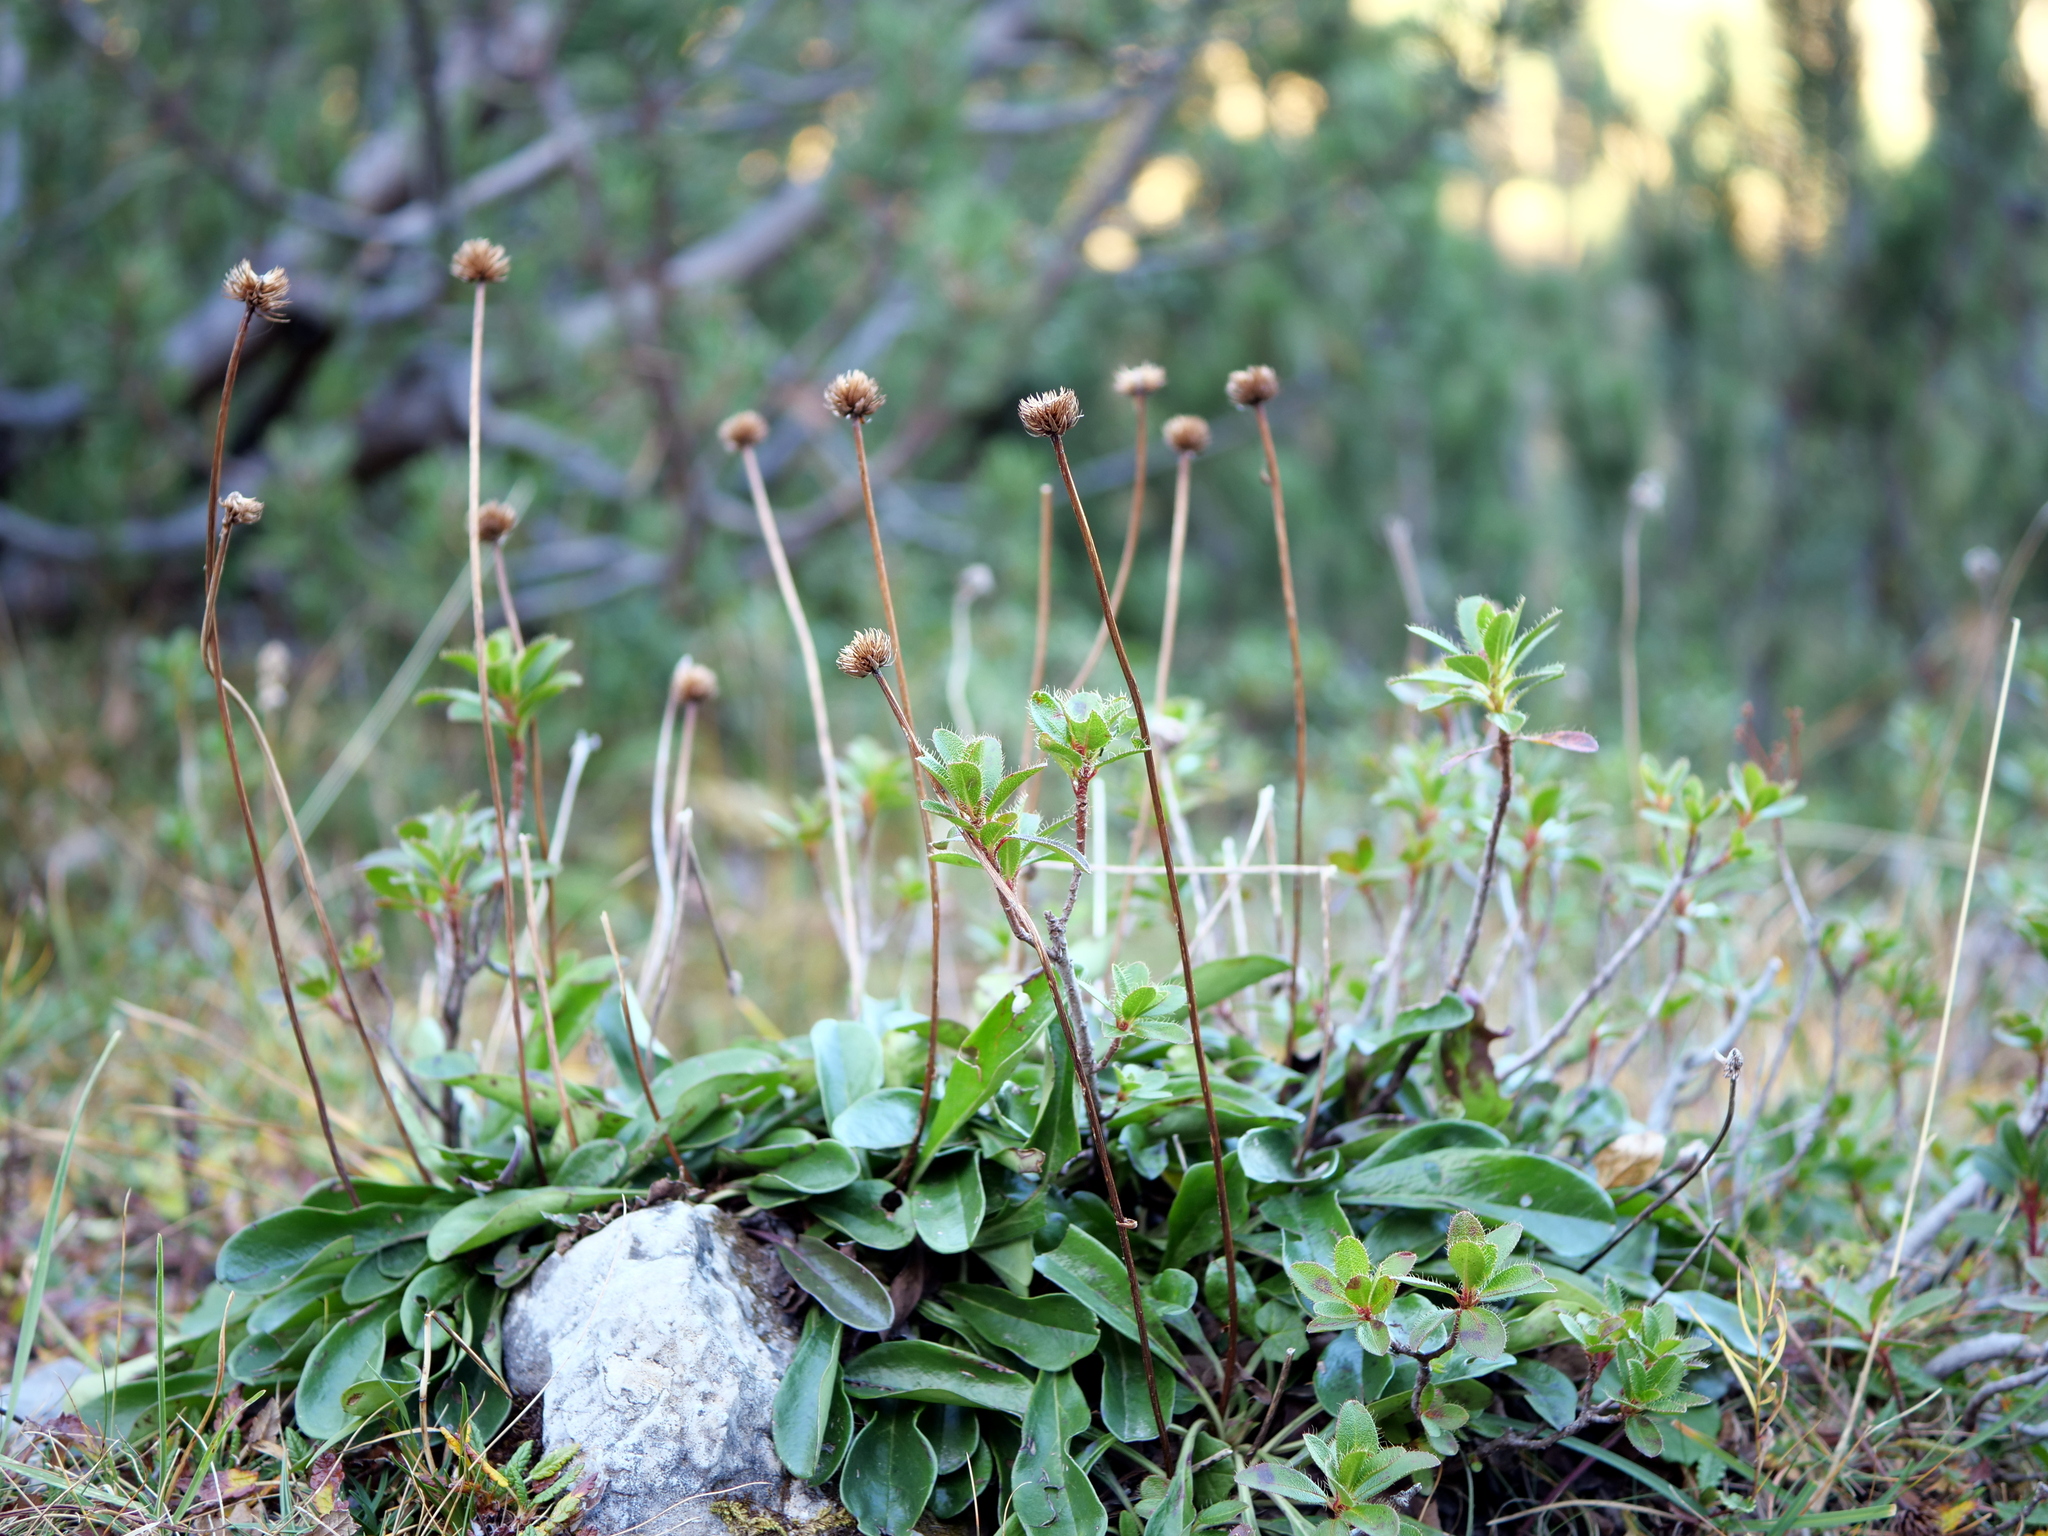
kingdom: Plantae
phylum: Tracheophyta
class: Magnoliopsida
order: Lamiales
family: Plantaginaceae
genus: Globularia
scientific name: Globularia nudicaulis
